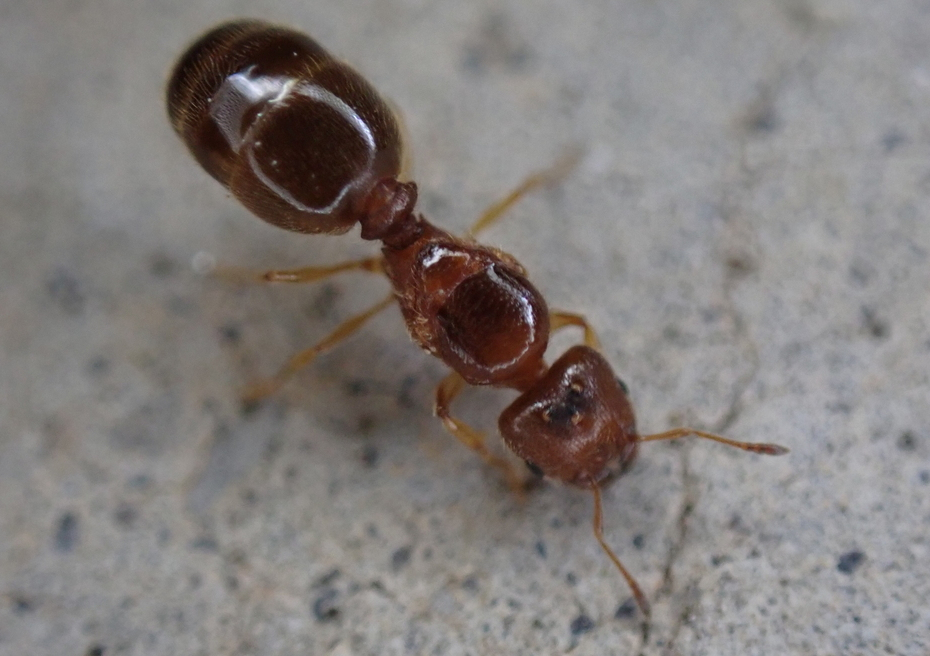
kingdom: Animalia
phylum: Arthropoda
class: Insecta
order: Hymenoptera
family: Formicidae
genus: Pheidole
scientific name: Pheidole bicarinata
